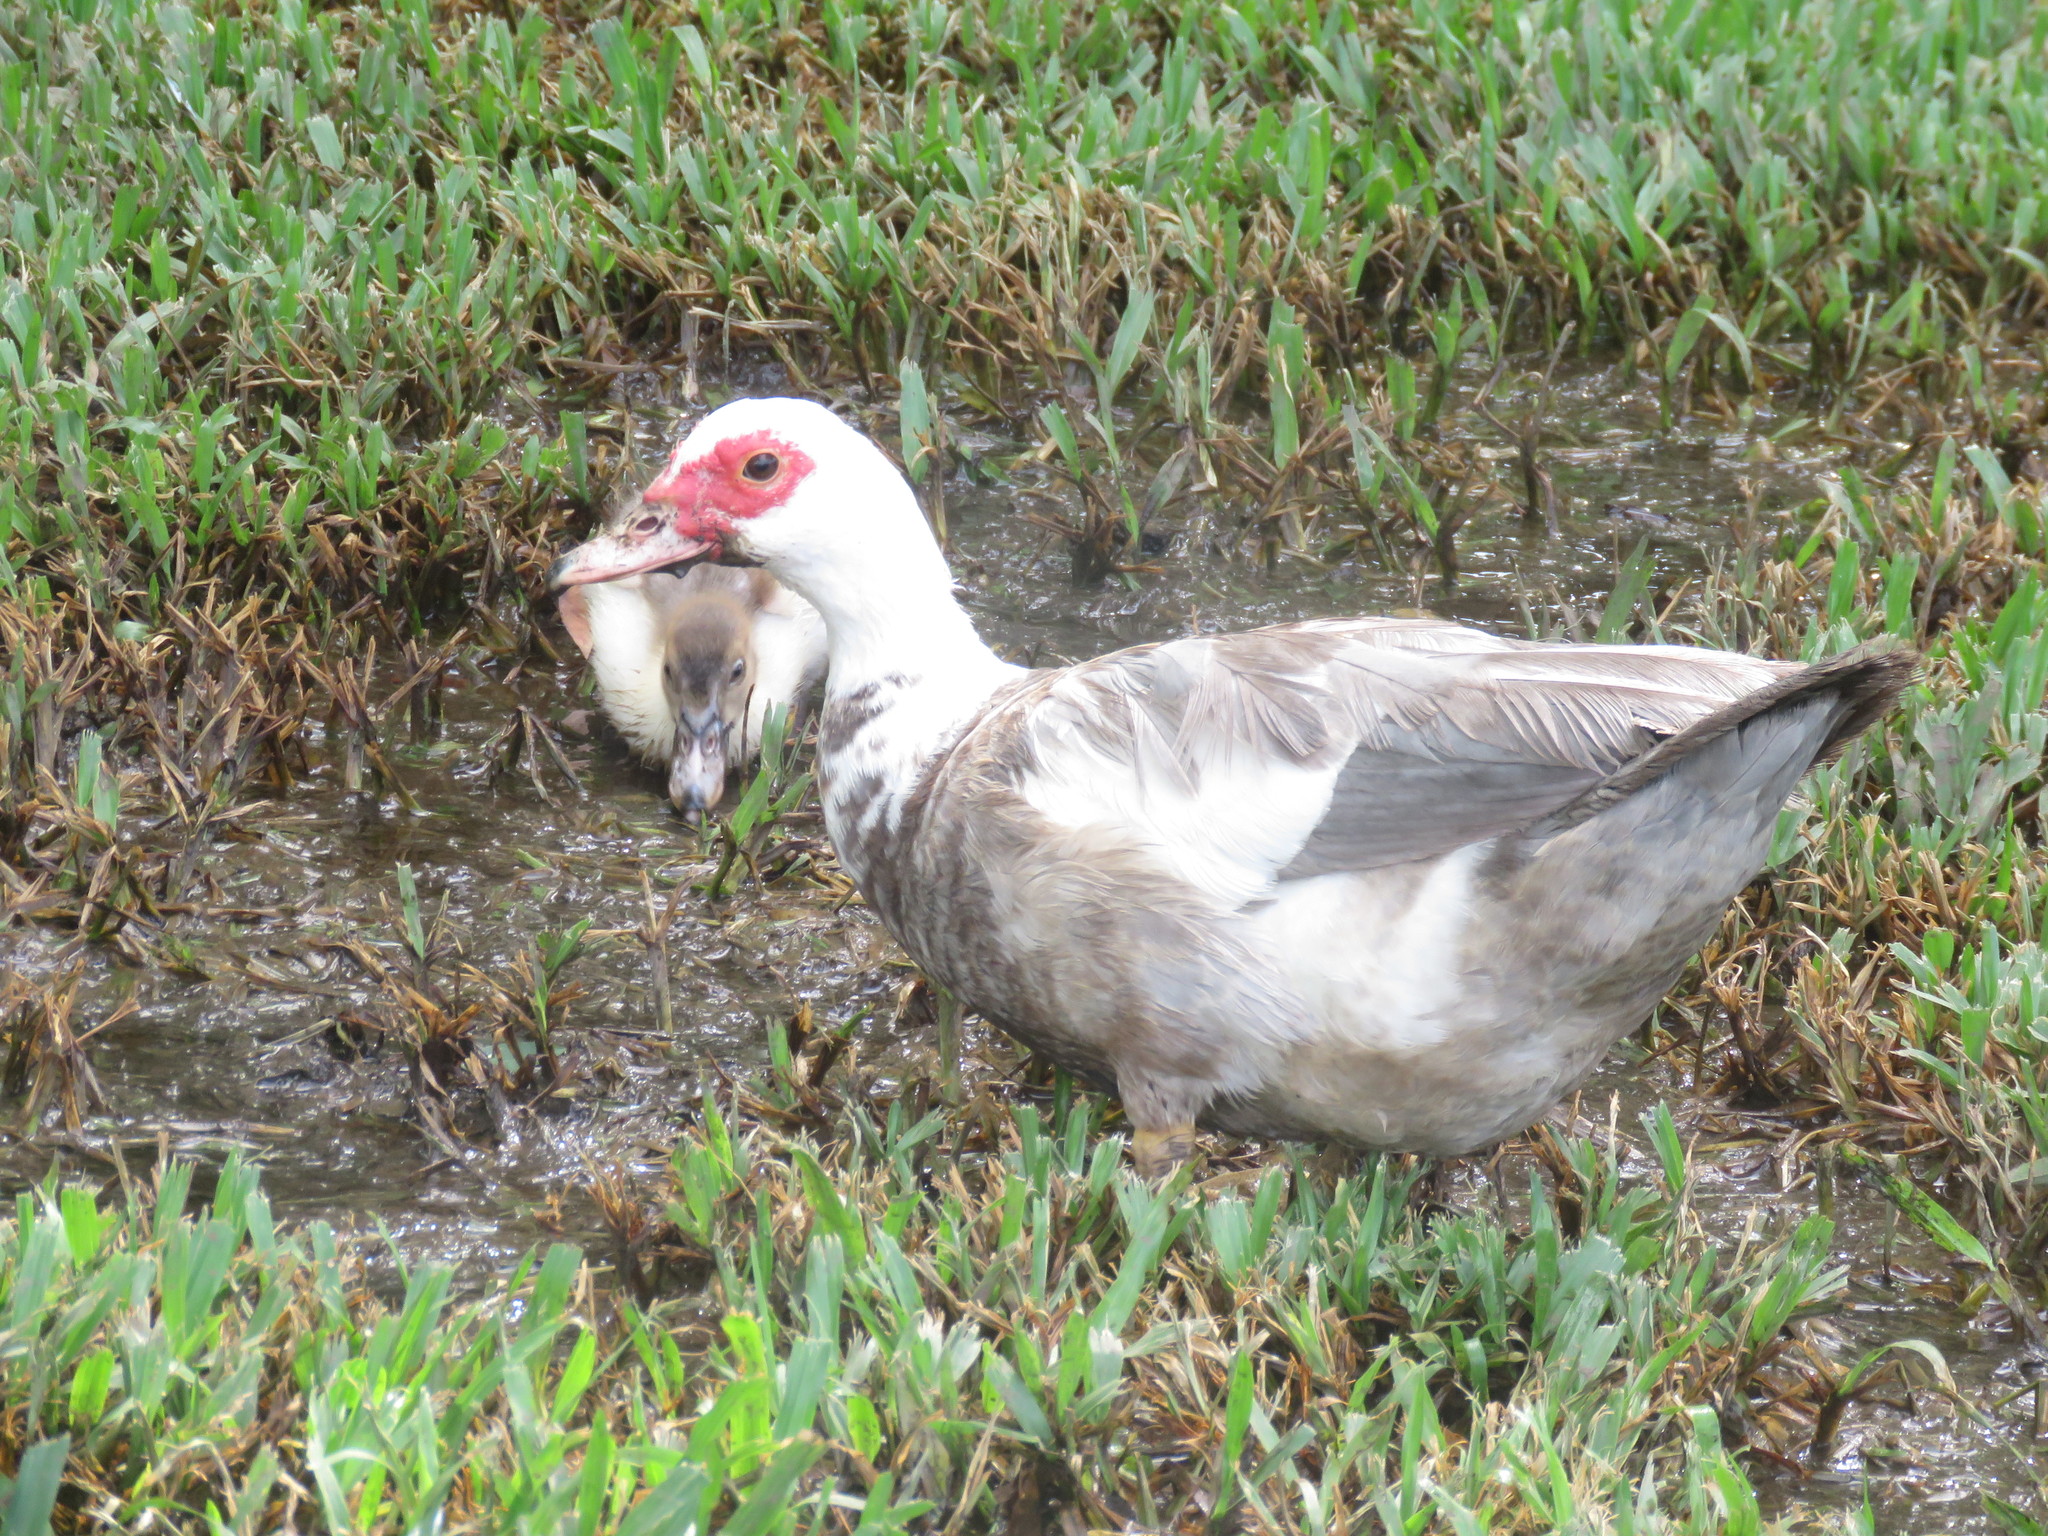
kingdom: Animalia
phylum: Chordata
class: Aves
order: Anseriformes
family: Anatidae
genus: Cairina
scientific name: Cairina moschata
